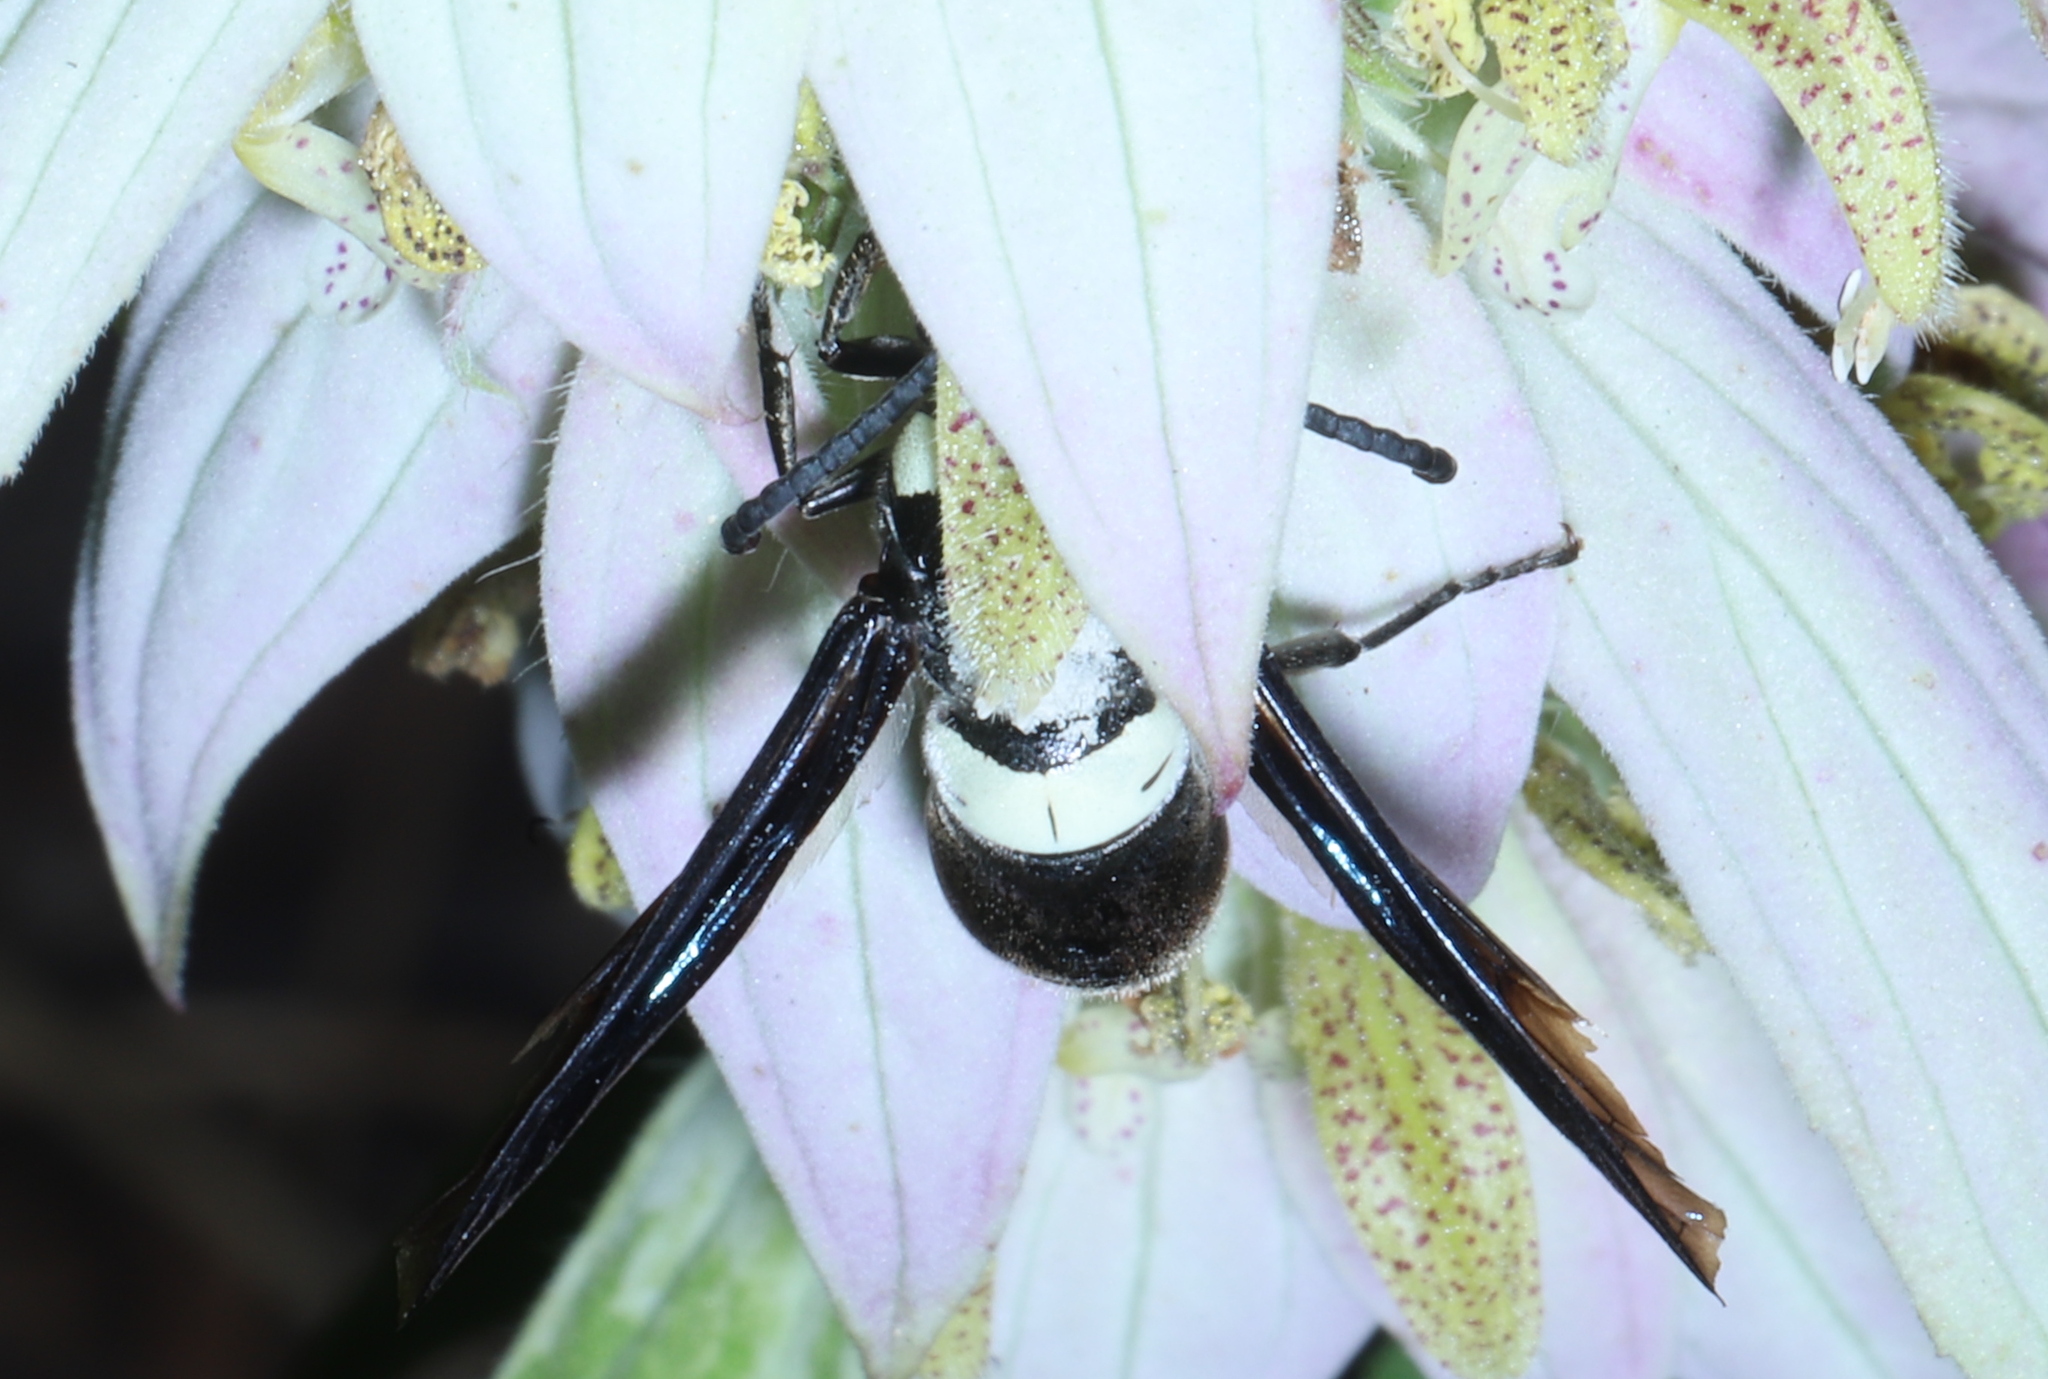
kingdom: Animalia
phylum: Arthropoda
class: Insecta
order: Hymenoptera
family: Eumenidae
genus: Monobia
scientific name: Monobia quadridens
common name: Four-toothed mason wasp
